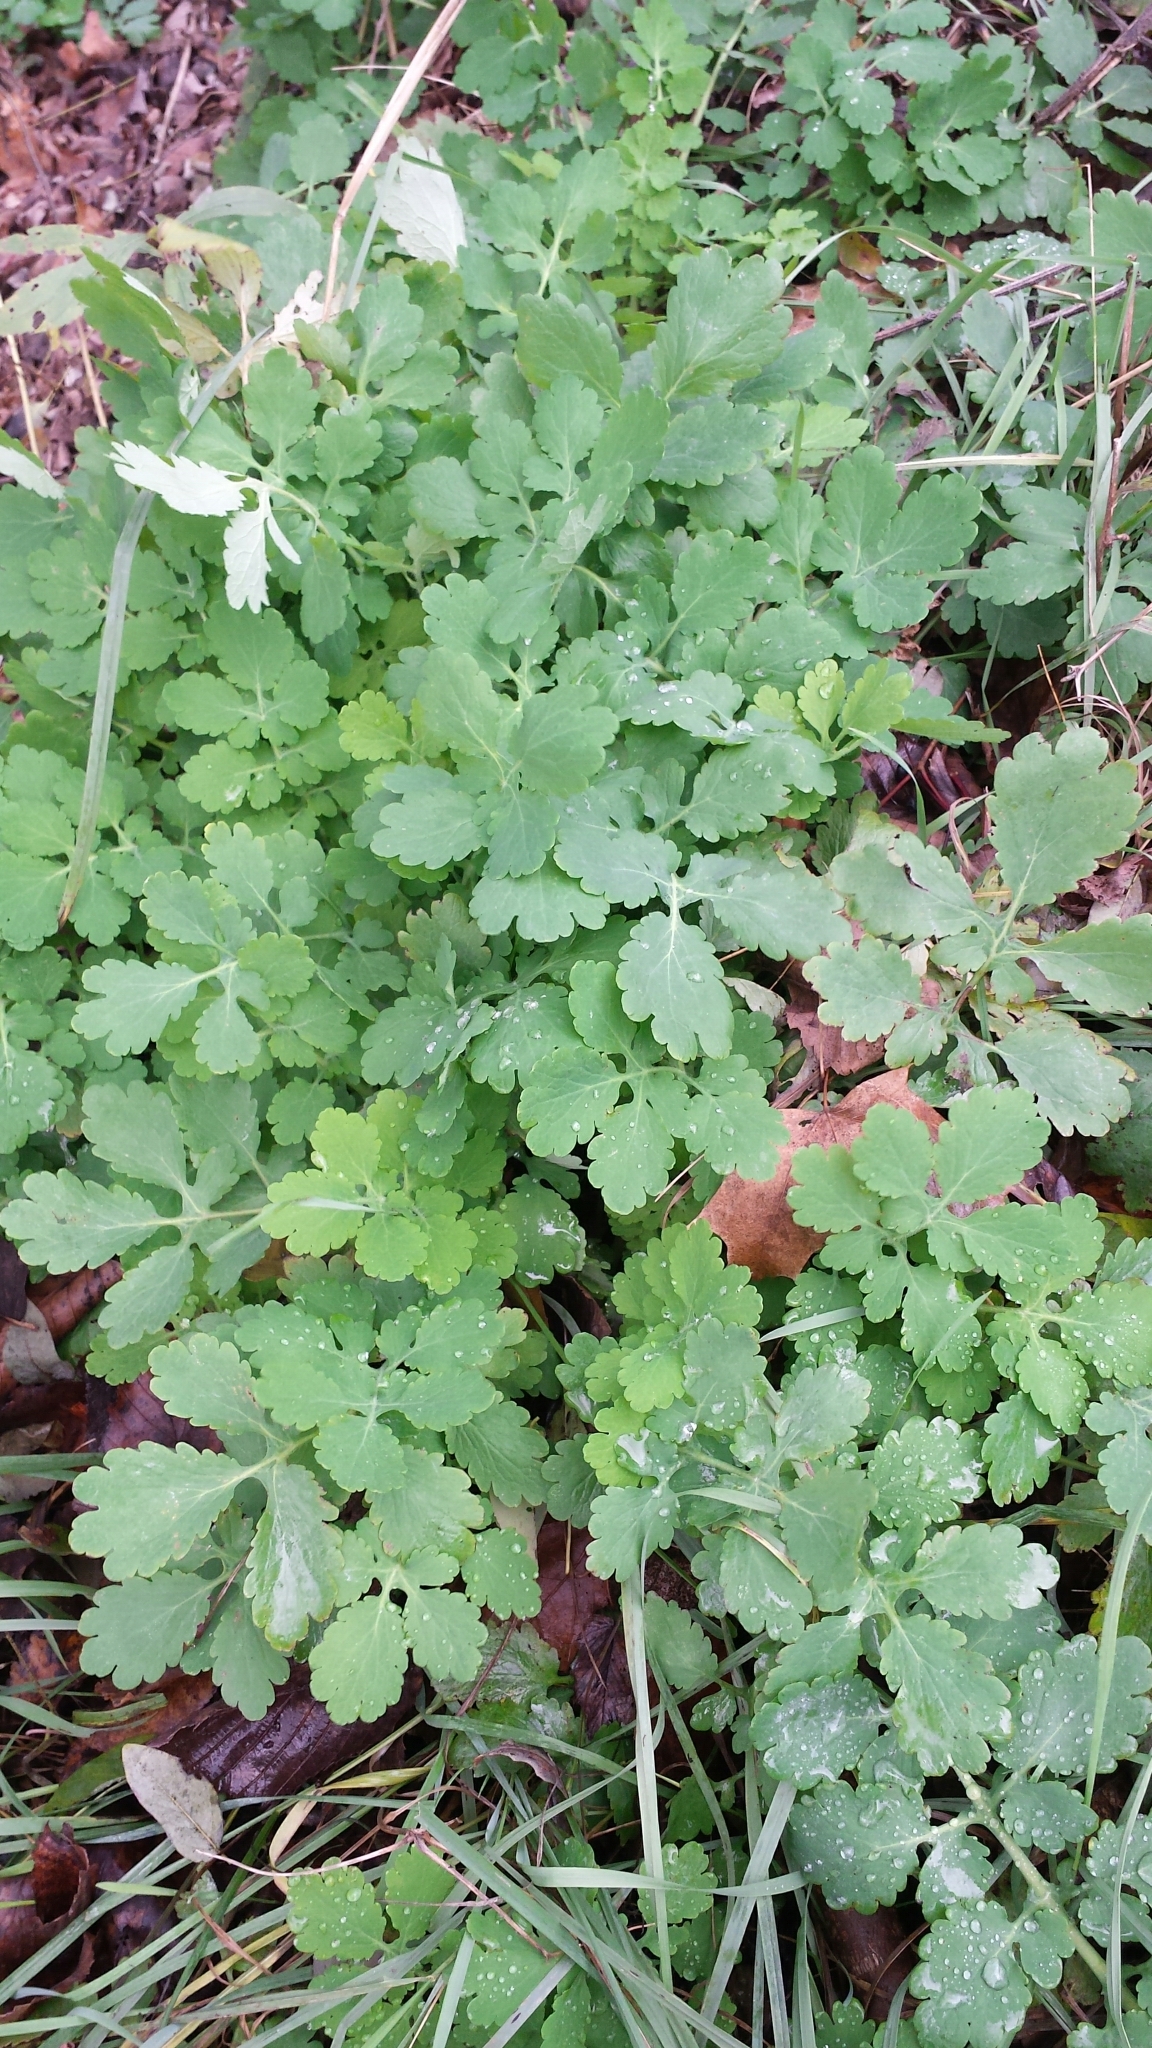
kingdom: Plantae
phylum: Tracheophyta
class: Magnoliopsida
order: Ranunculales
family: Papaveraceae
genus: Chelidonium
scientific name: Chelidonium majus
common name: Greater celandine
